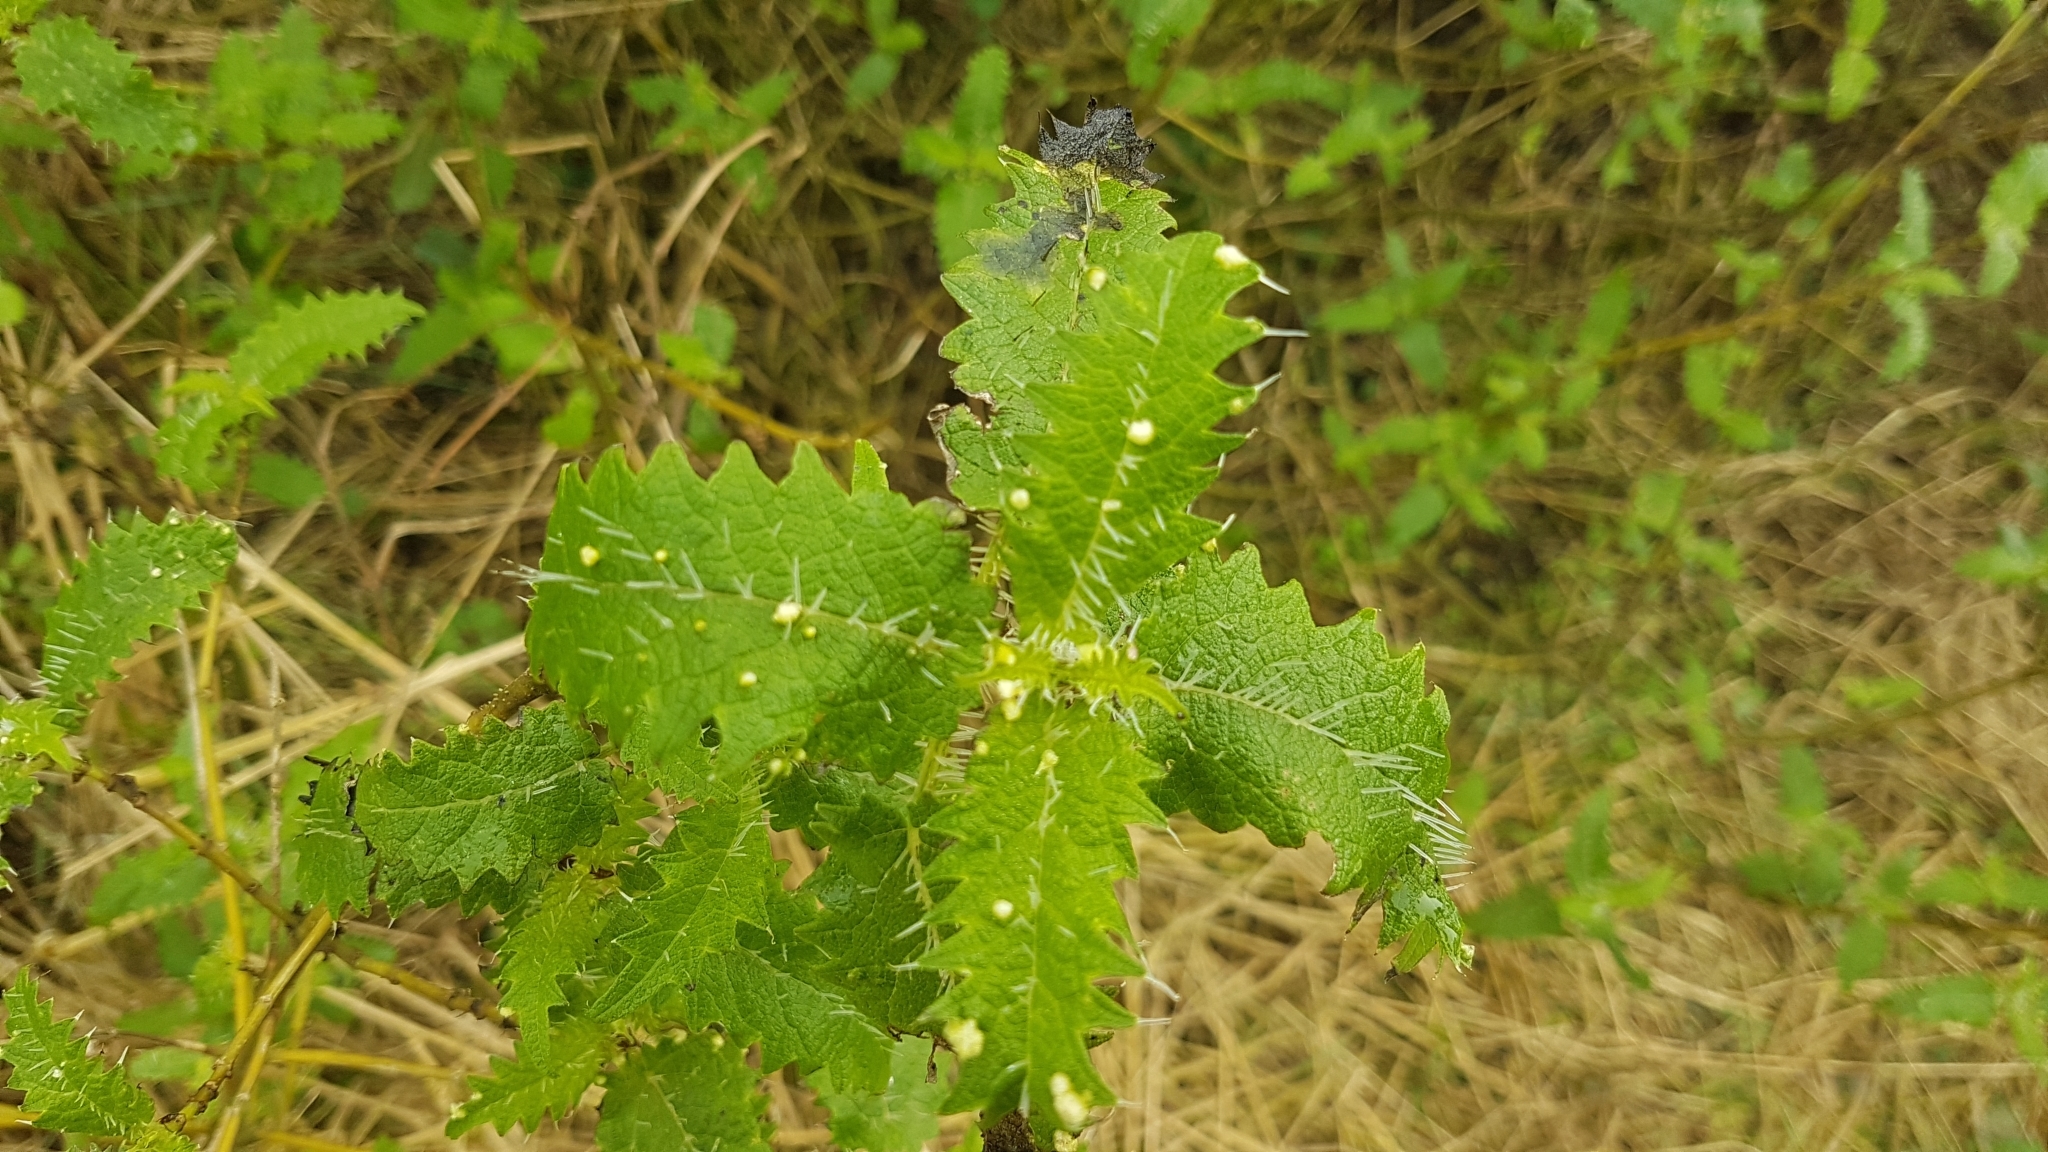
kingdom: Plantae
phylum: Tracheophyta
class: Magnoliopsida
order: Rosales
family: Urticaceae
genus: Urtica
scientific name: Urtica ferox
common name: Tree nettle
